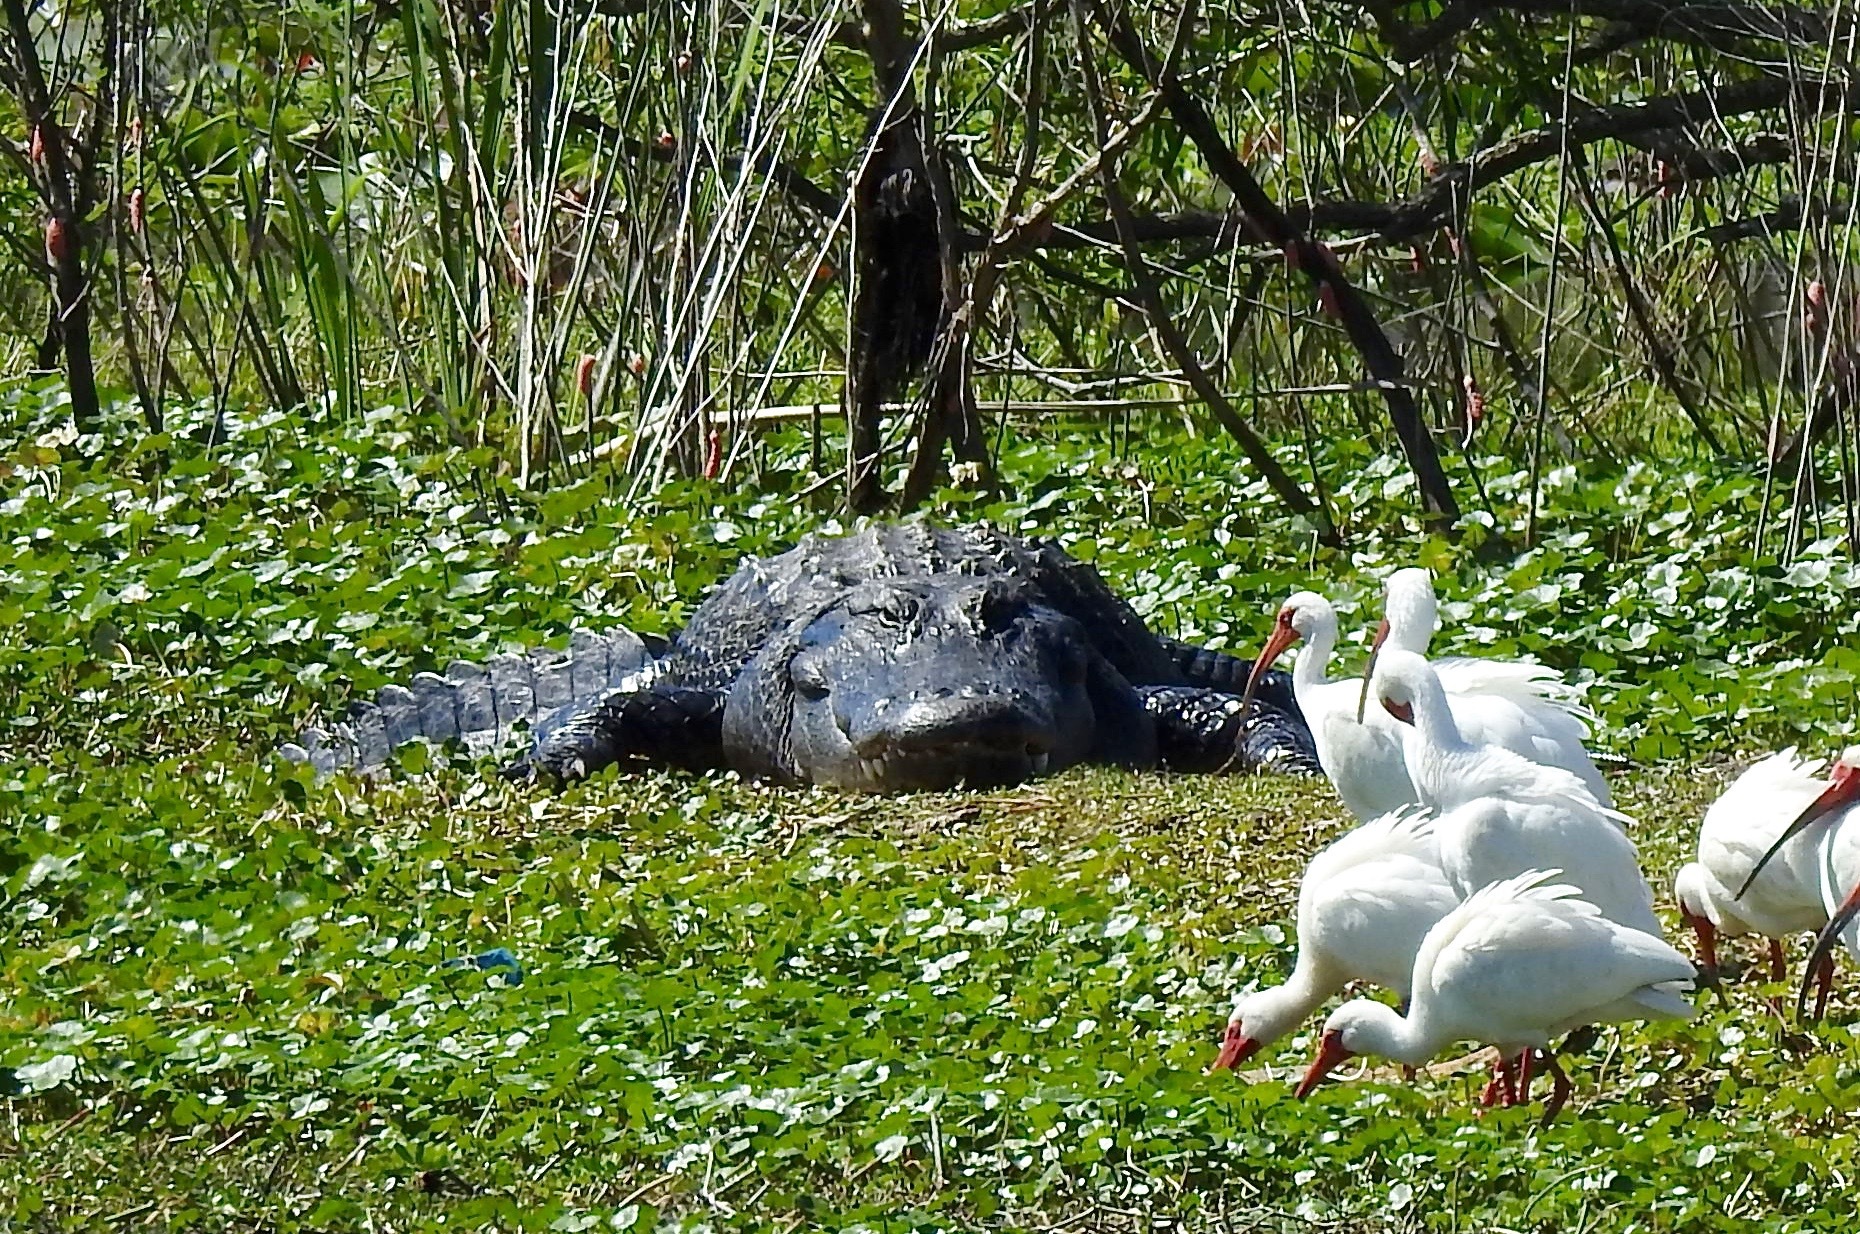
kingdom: Animalia
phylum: Chordata
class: Crocodylia
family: Alligatoridae
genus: Alligator
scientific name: Alligator mississippiensis
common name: American alligator
